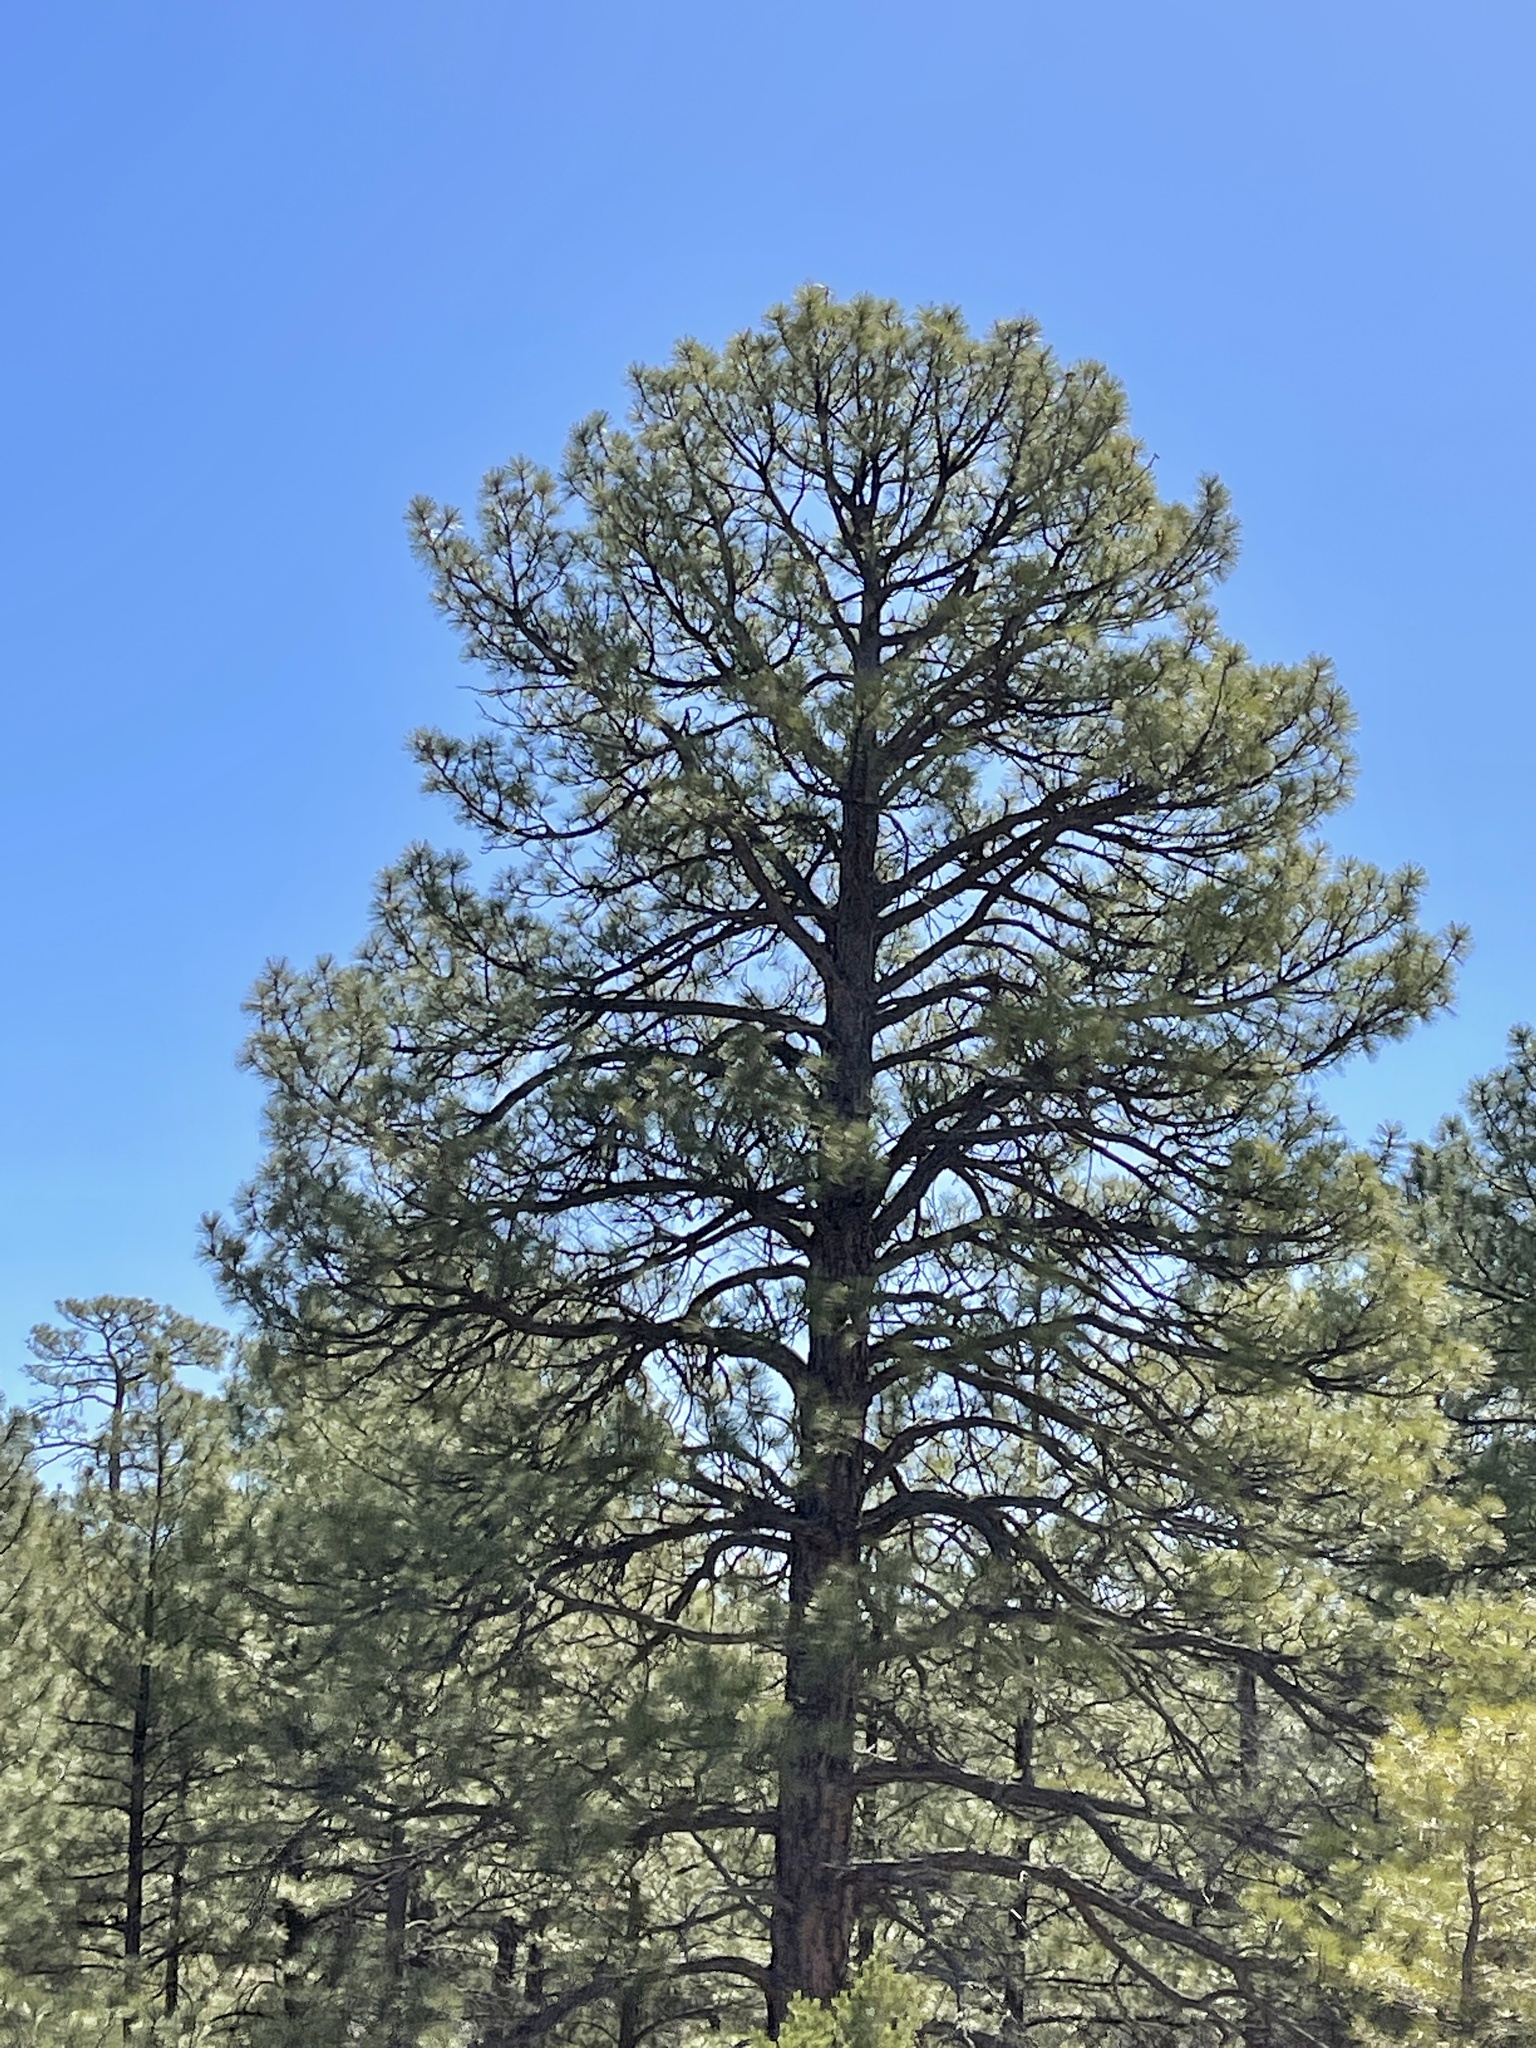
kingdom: Plantae
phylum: Tracheophyta
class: Pinopsida
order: Pinales
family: Pinaceae
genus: Pinus
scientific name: Pinus ponderosa
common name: Western yellow-pine
